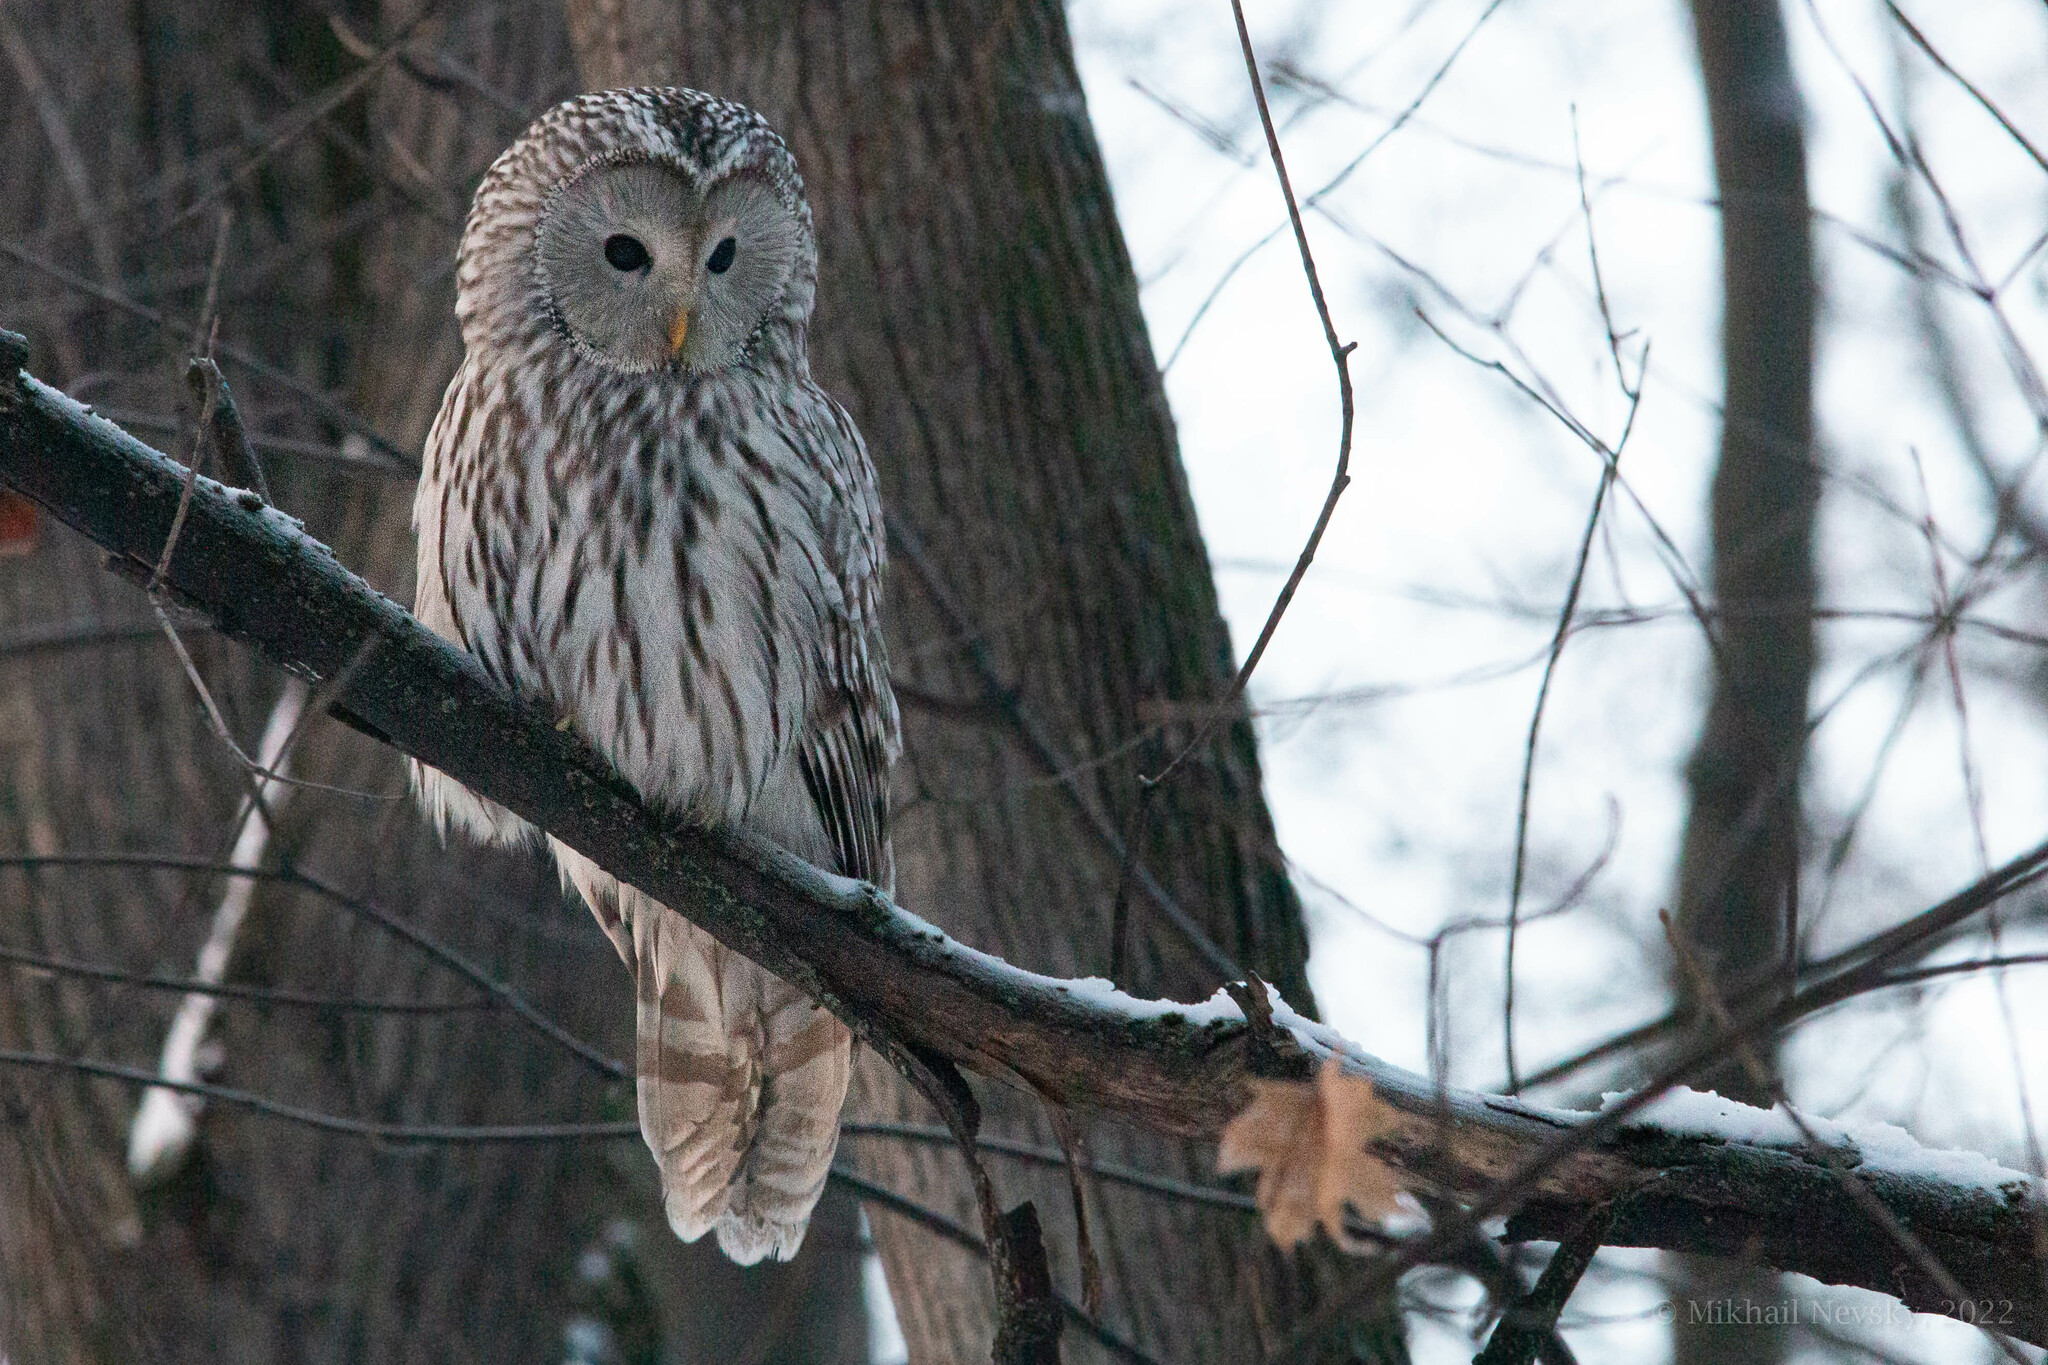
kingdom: Animalia
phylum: Chordata
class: Aves
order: Strigiformes
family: Strigidae
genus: Strix
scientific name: Strix uralensis
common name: Ural owl
